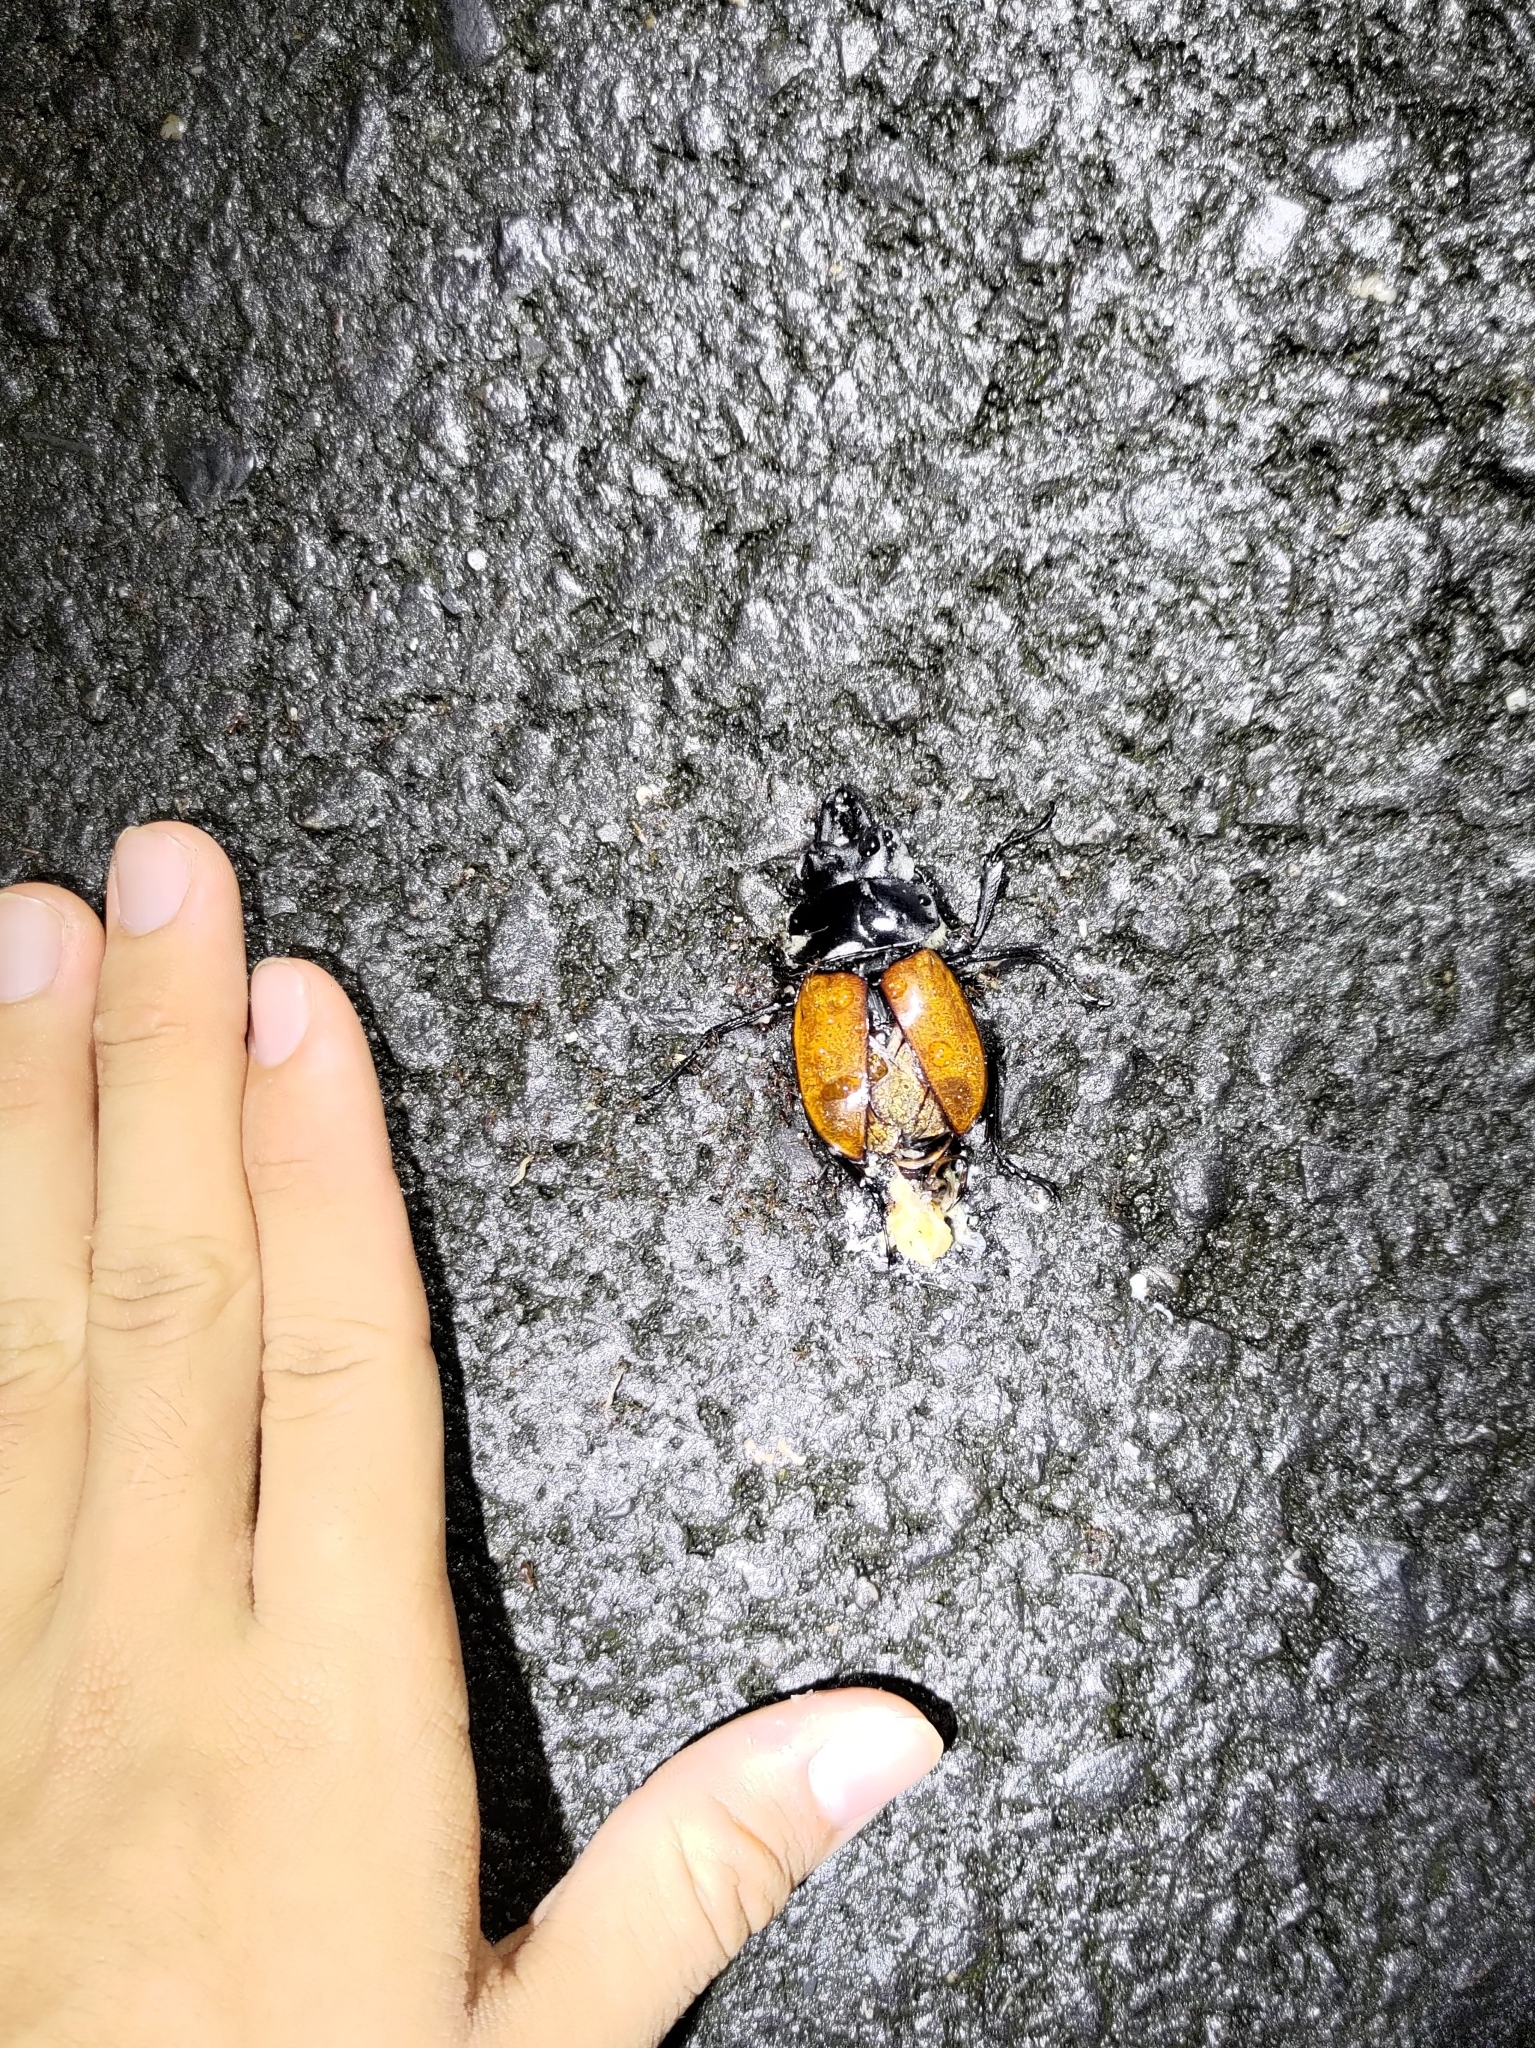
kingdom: Animalia
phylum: Arthropoda
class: Insecta
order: Coleoptera
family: Lucanidae
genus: Neolucanus
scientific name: Neolucanus swinhoei
